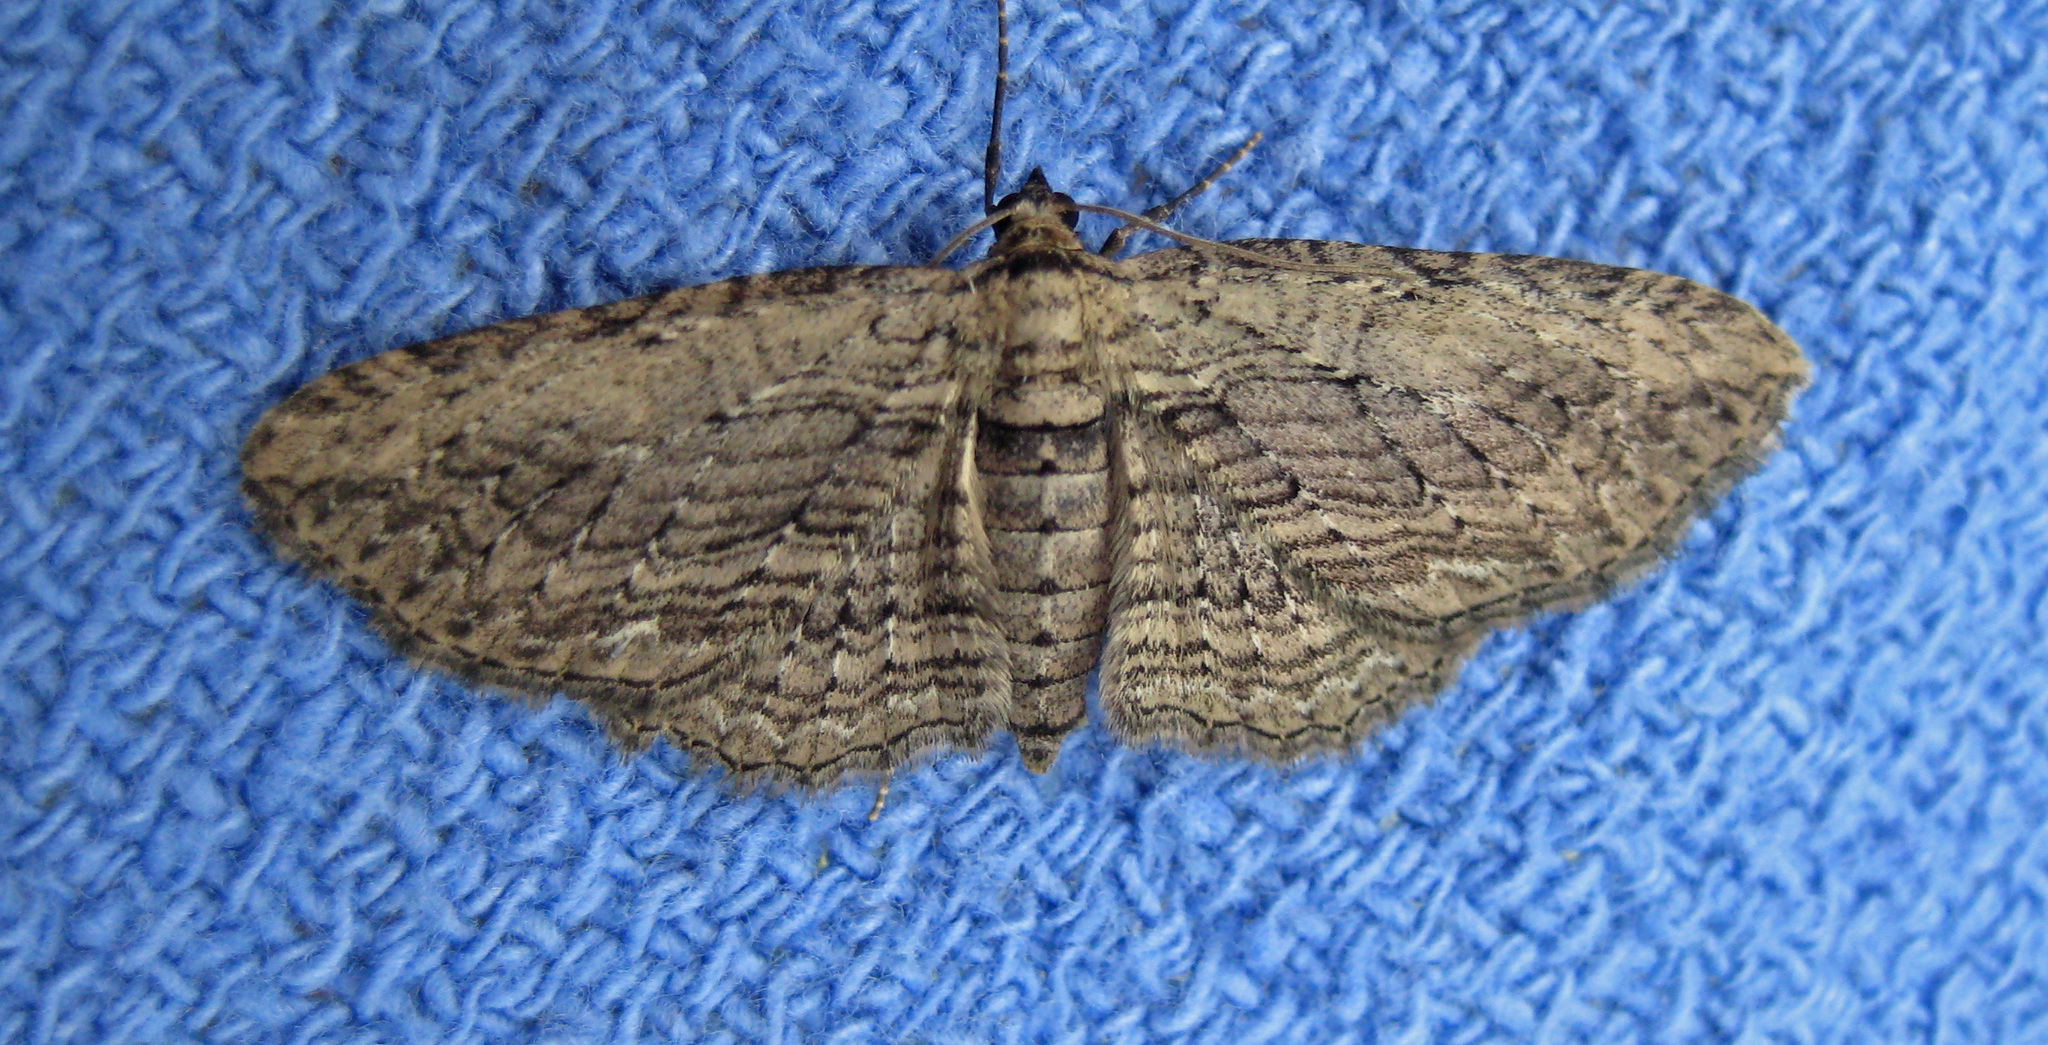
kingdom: Animalia
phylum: Arthropoda
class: Insecta
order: Lepidoptera
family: Geometridae
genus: Horisme
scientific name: Horisme intestinata
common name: Brown bark carpet
